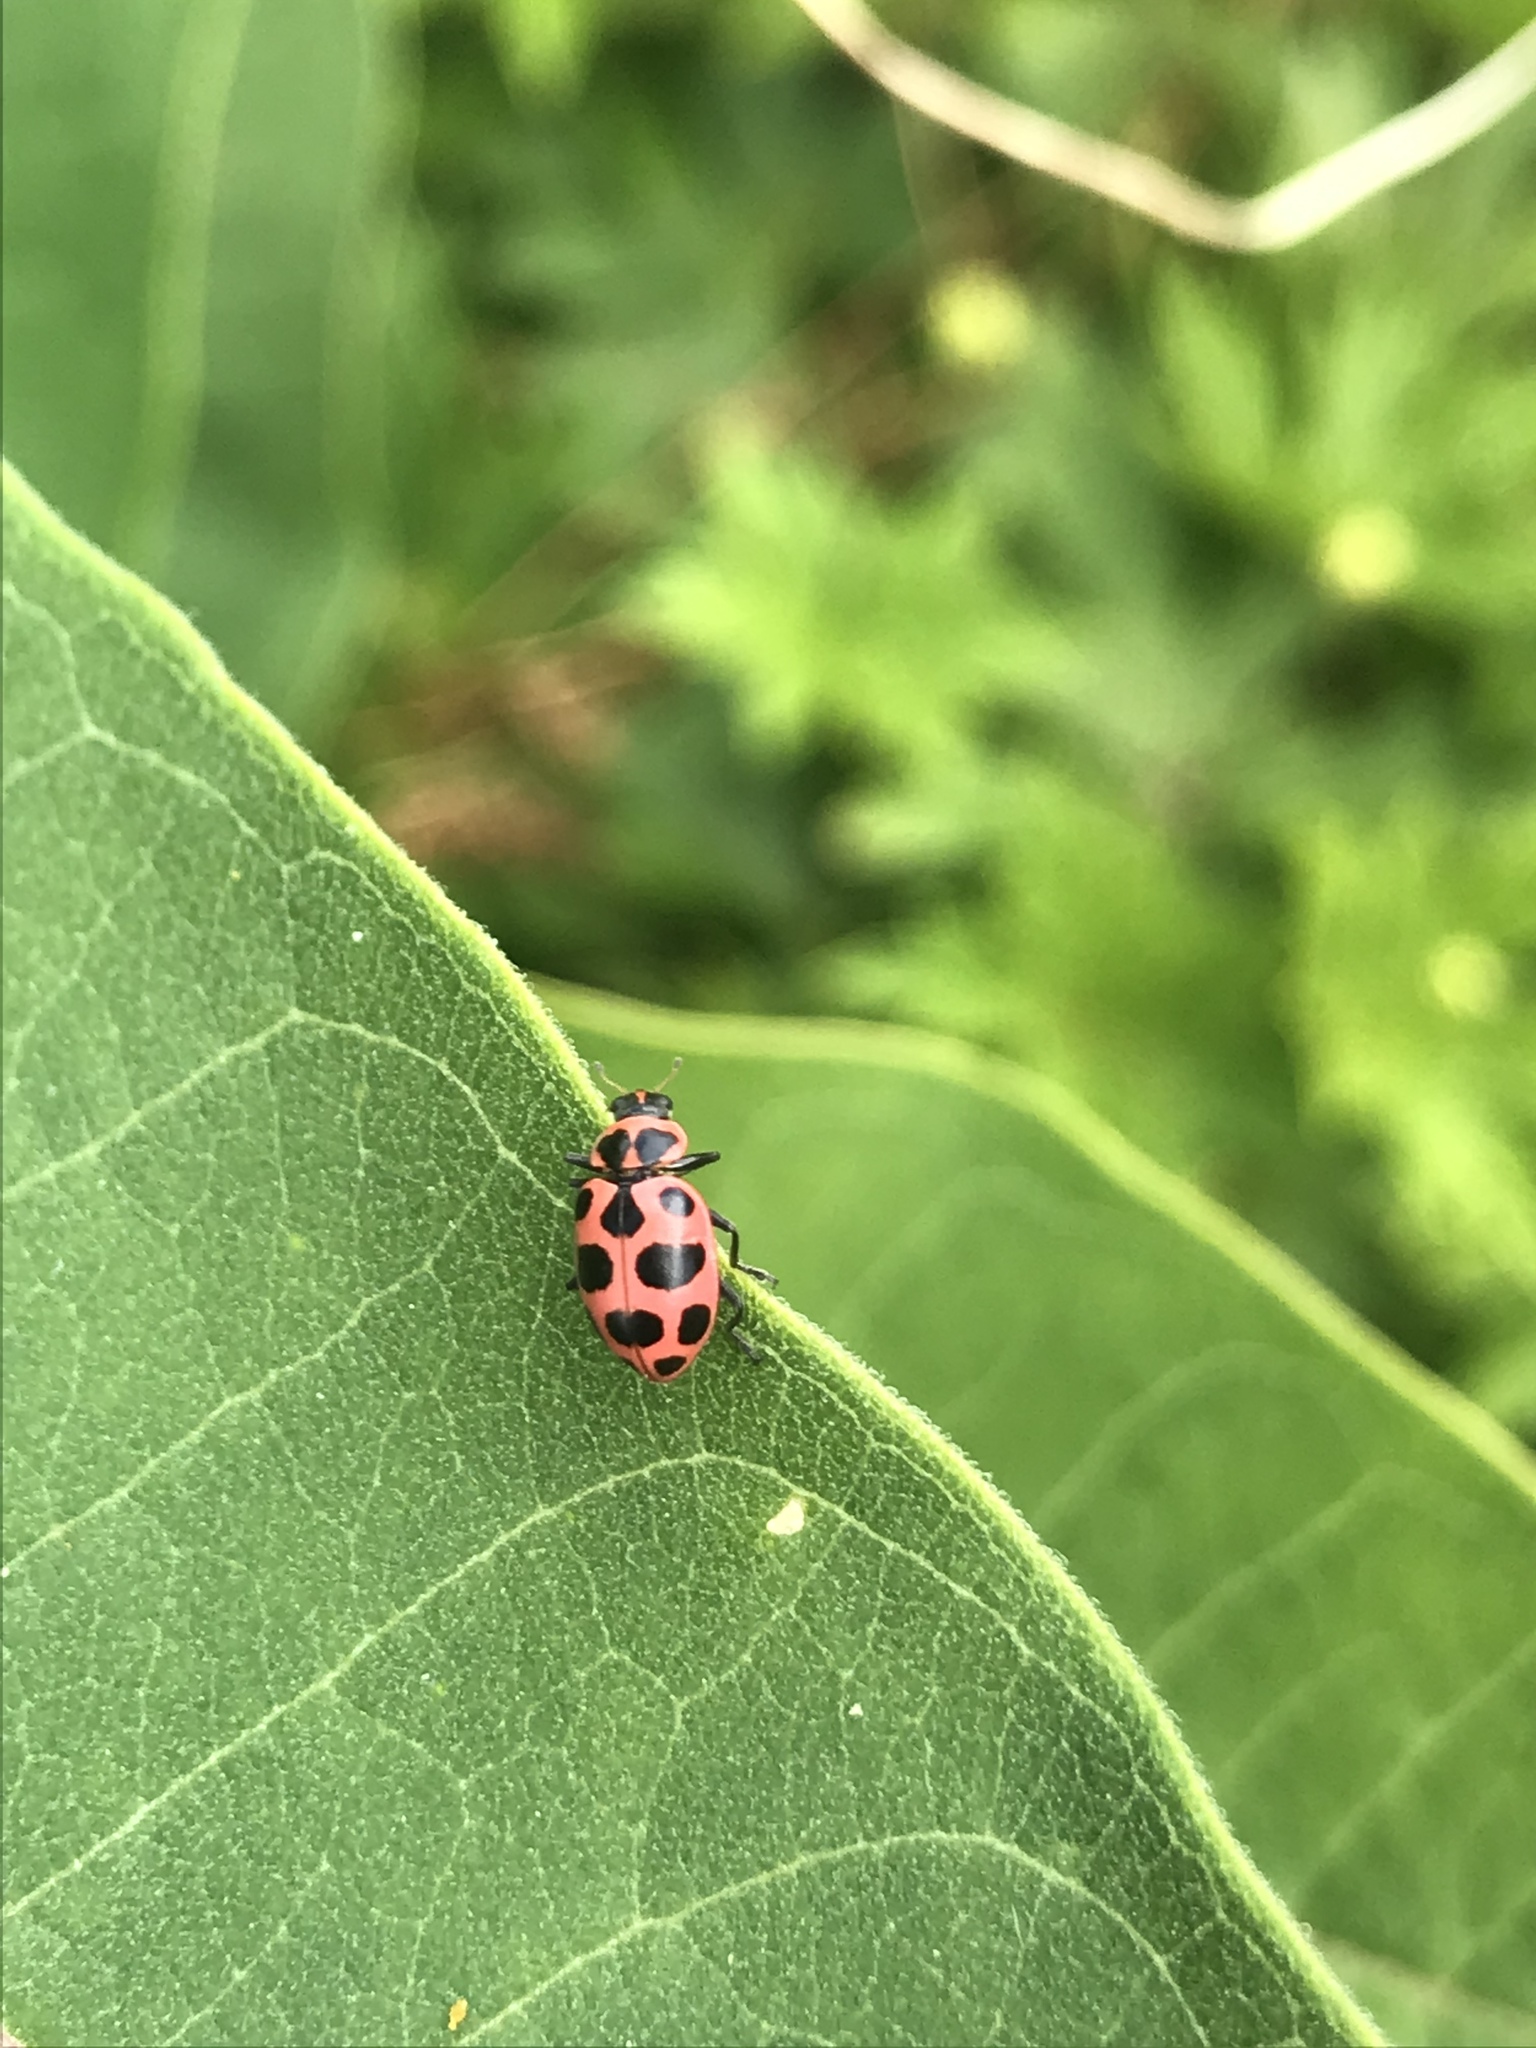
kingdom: Animalia
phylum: Arthropoda
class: Insecta
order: Coleoptera
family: Coccinellidae
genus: Coleomegilla
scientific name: Coleomegilla maculata
